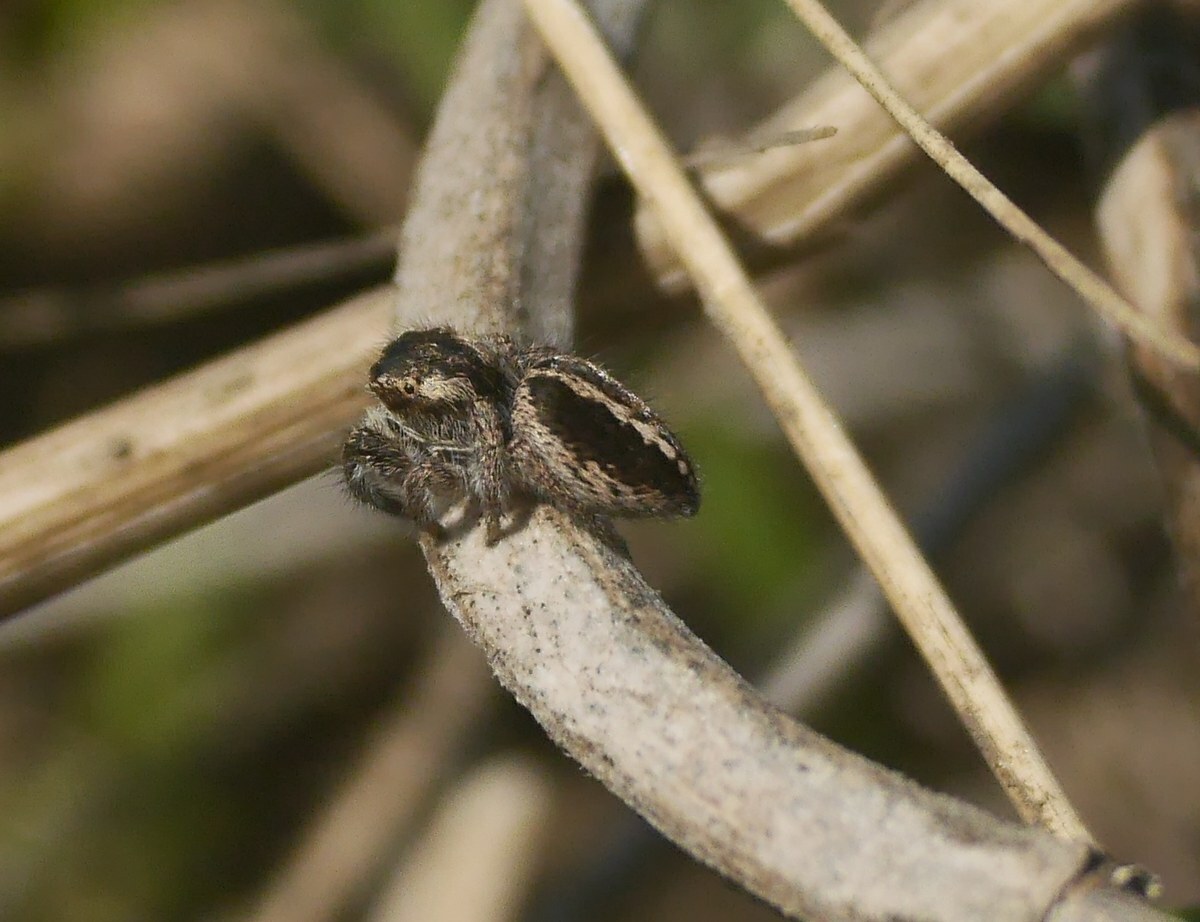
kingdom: Animalia
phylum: Arthropoda
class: Arachnida
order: Araneae
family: Salticidae
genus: Pellenes
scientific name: Pellenes seriatus
